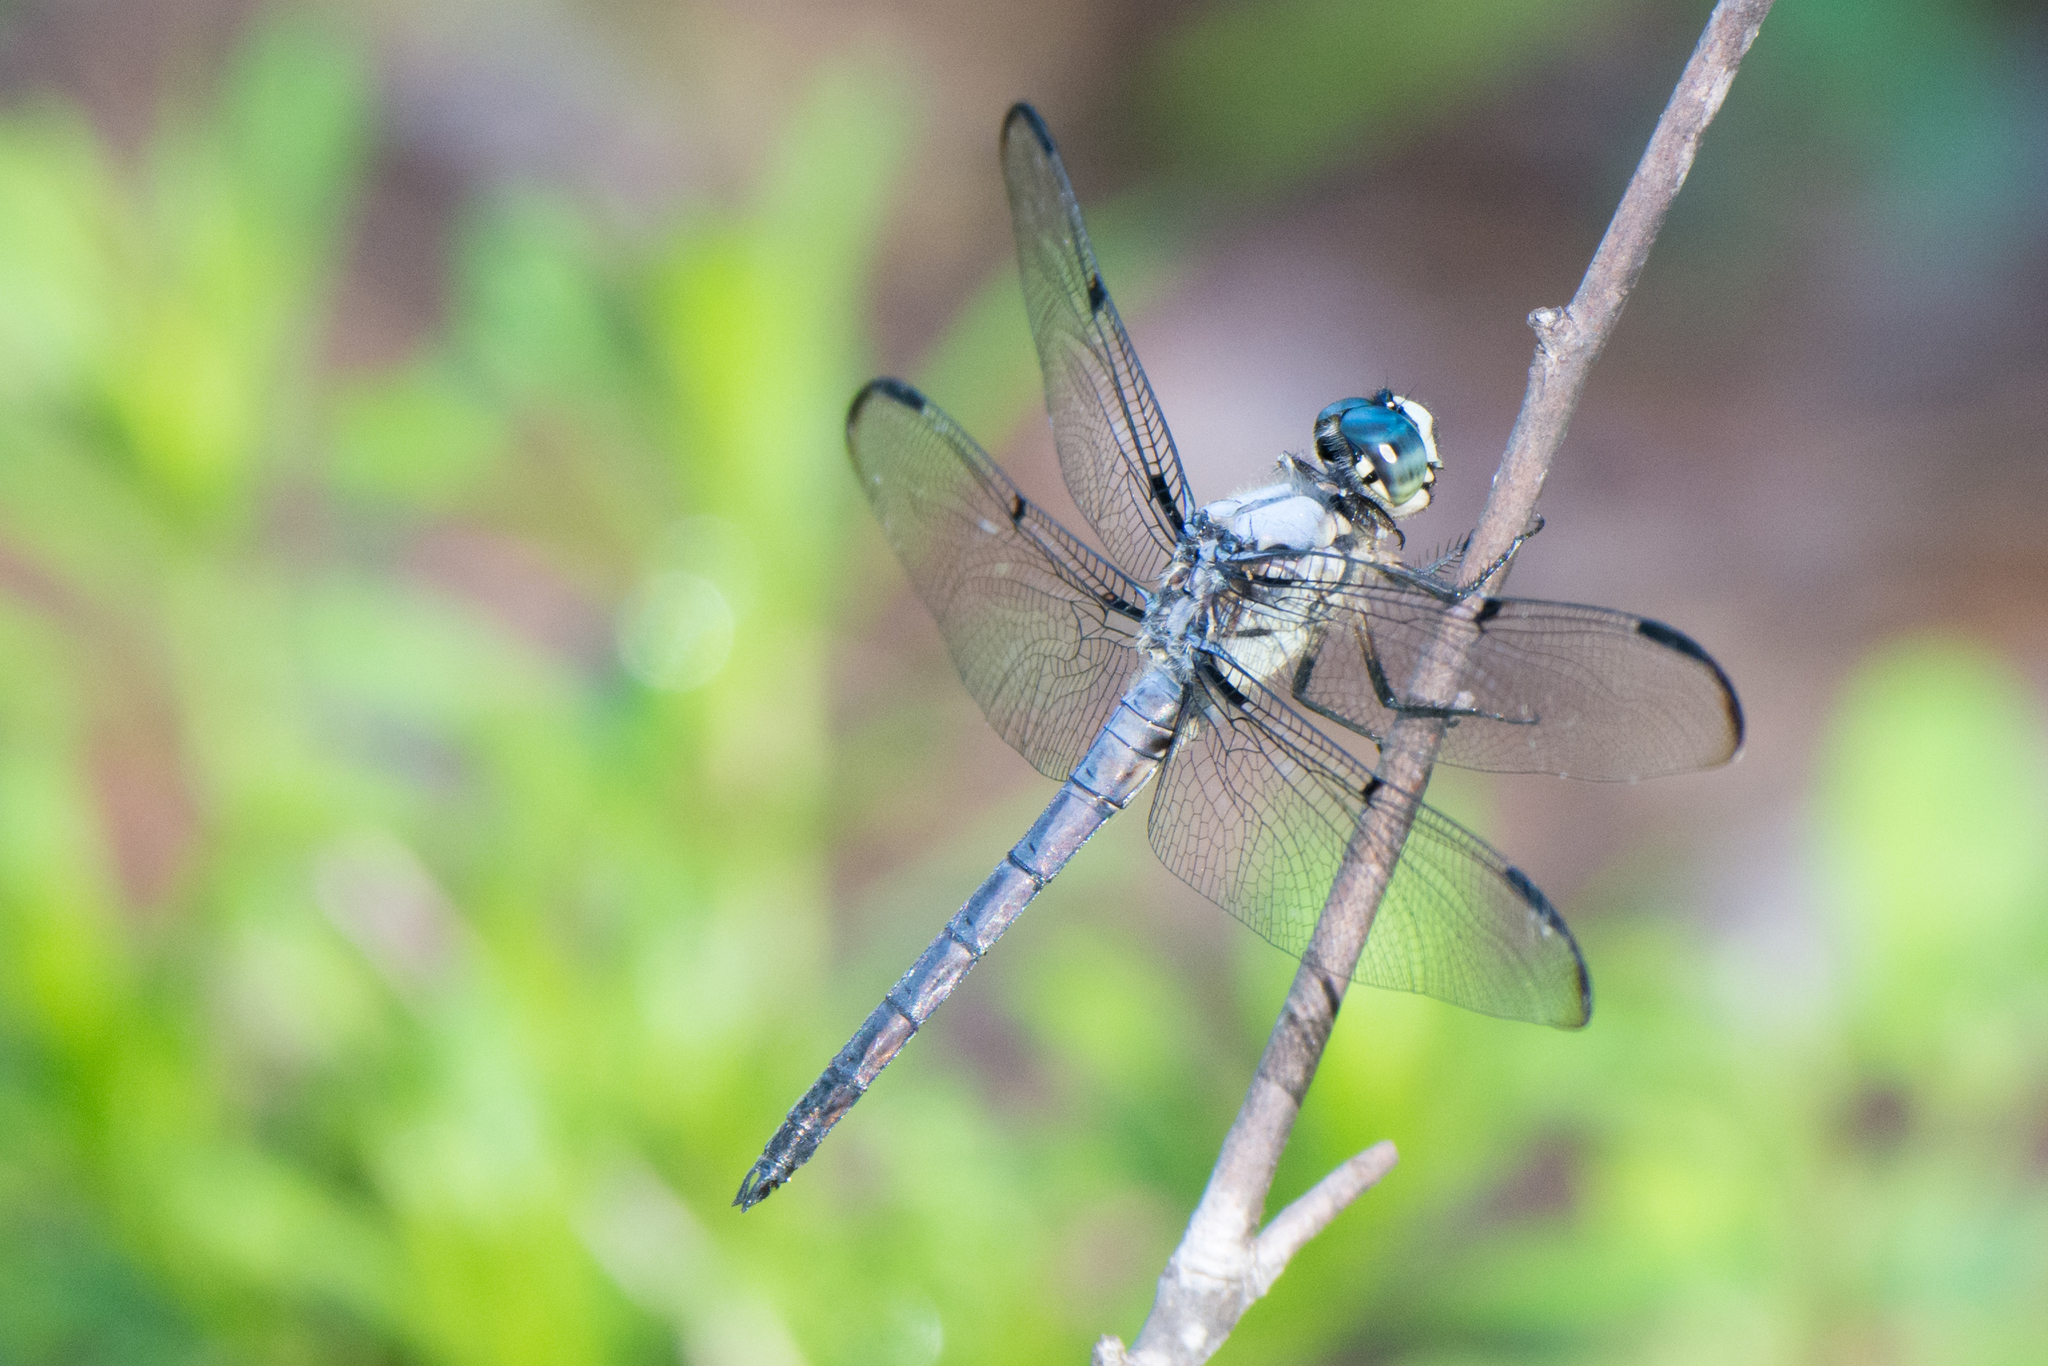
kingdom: Animalia
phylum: Arthropoda
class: Insecta
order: Odonata
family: Libellulidae
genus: Libellula
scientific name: Libellula vibrans
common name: Great blue skimmer
